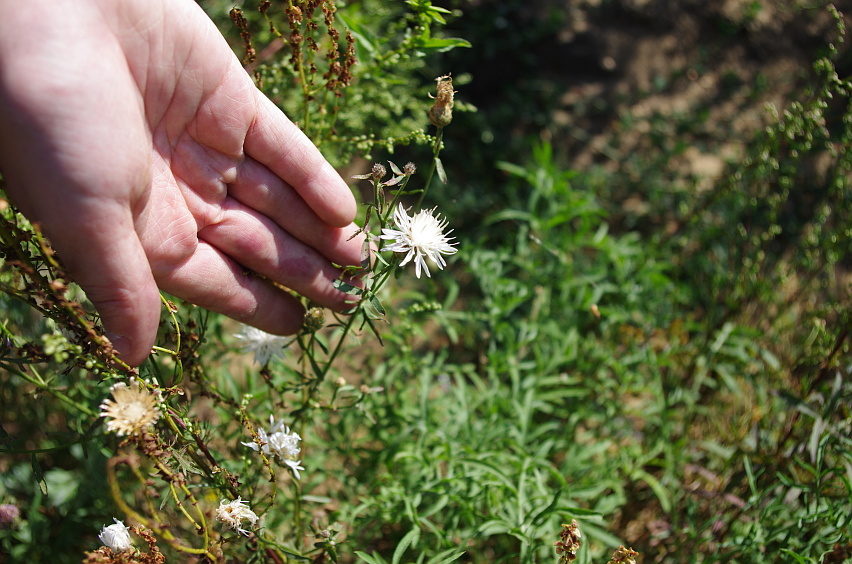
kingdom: Plantae
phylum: Tracheophyta
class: Magnoliopsida
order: Asterales
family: Asteraceae
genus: Centaurea
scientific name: Centaurea stoebe
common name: Spotted knapweed
